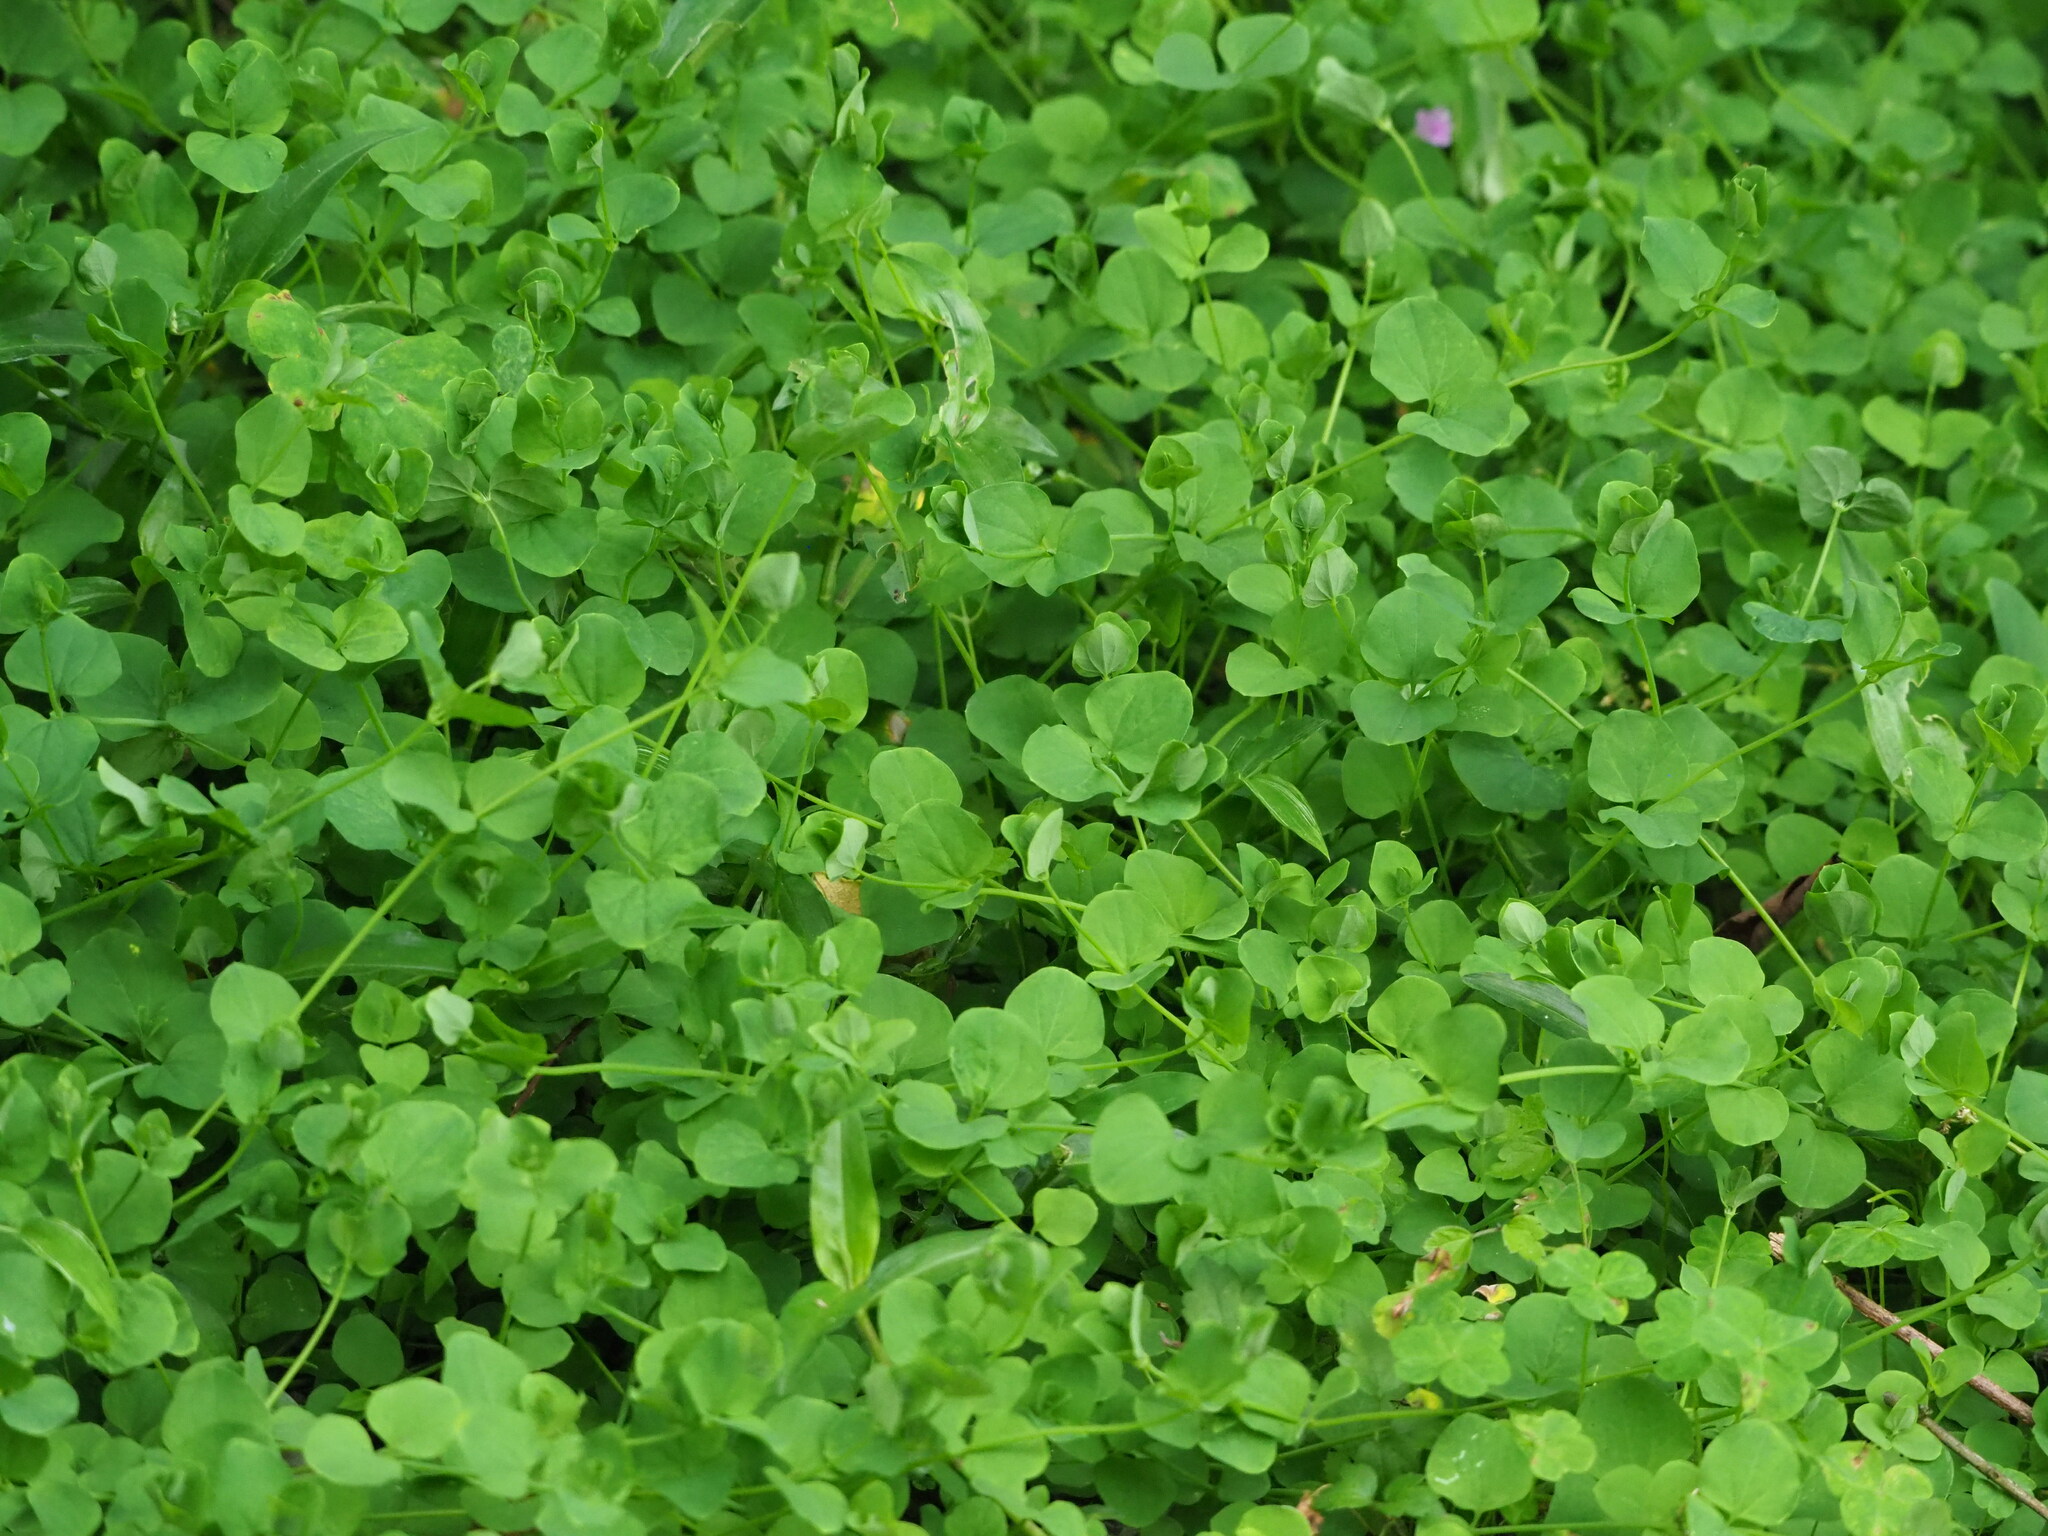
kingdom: Plantae
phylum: Tracheophyta
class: Magnoliopsida
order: Caryophyllales
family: Caryophyllaceae
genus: Drymaria
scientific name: Drymaria cordata
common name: Whitesnow
